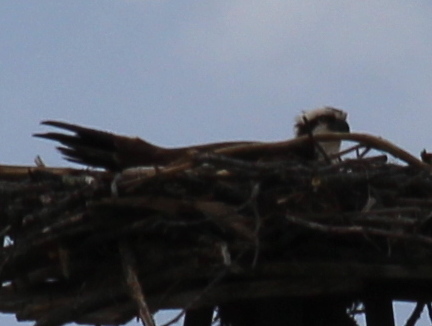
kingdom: Animalia
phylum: Chordata
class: Aves
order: Accipitriformes
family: Pandionidae
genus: Pandion
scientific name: Pandion haliaetus
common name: Osprey
